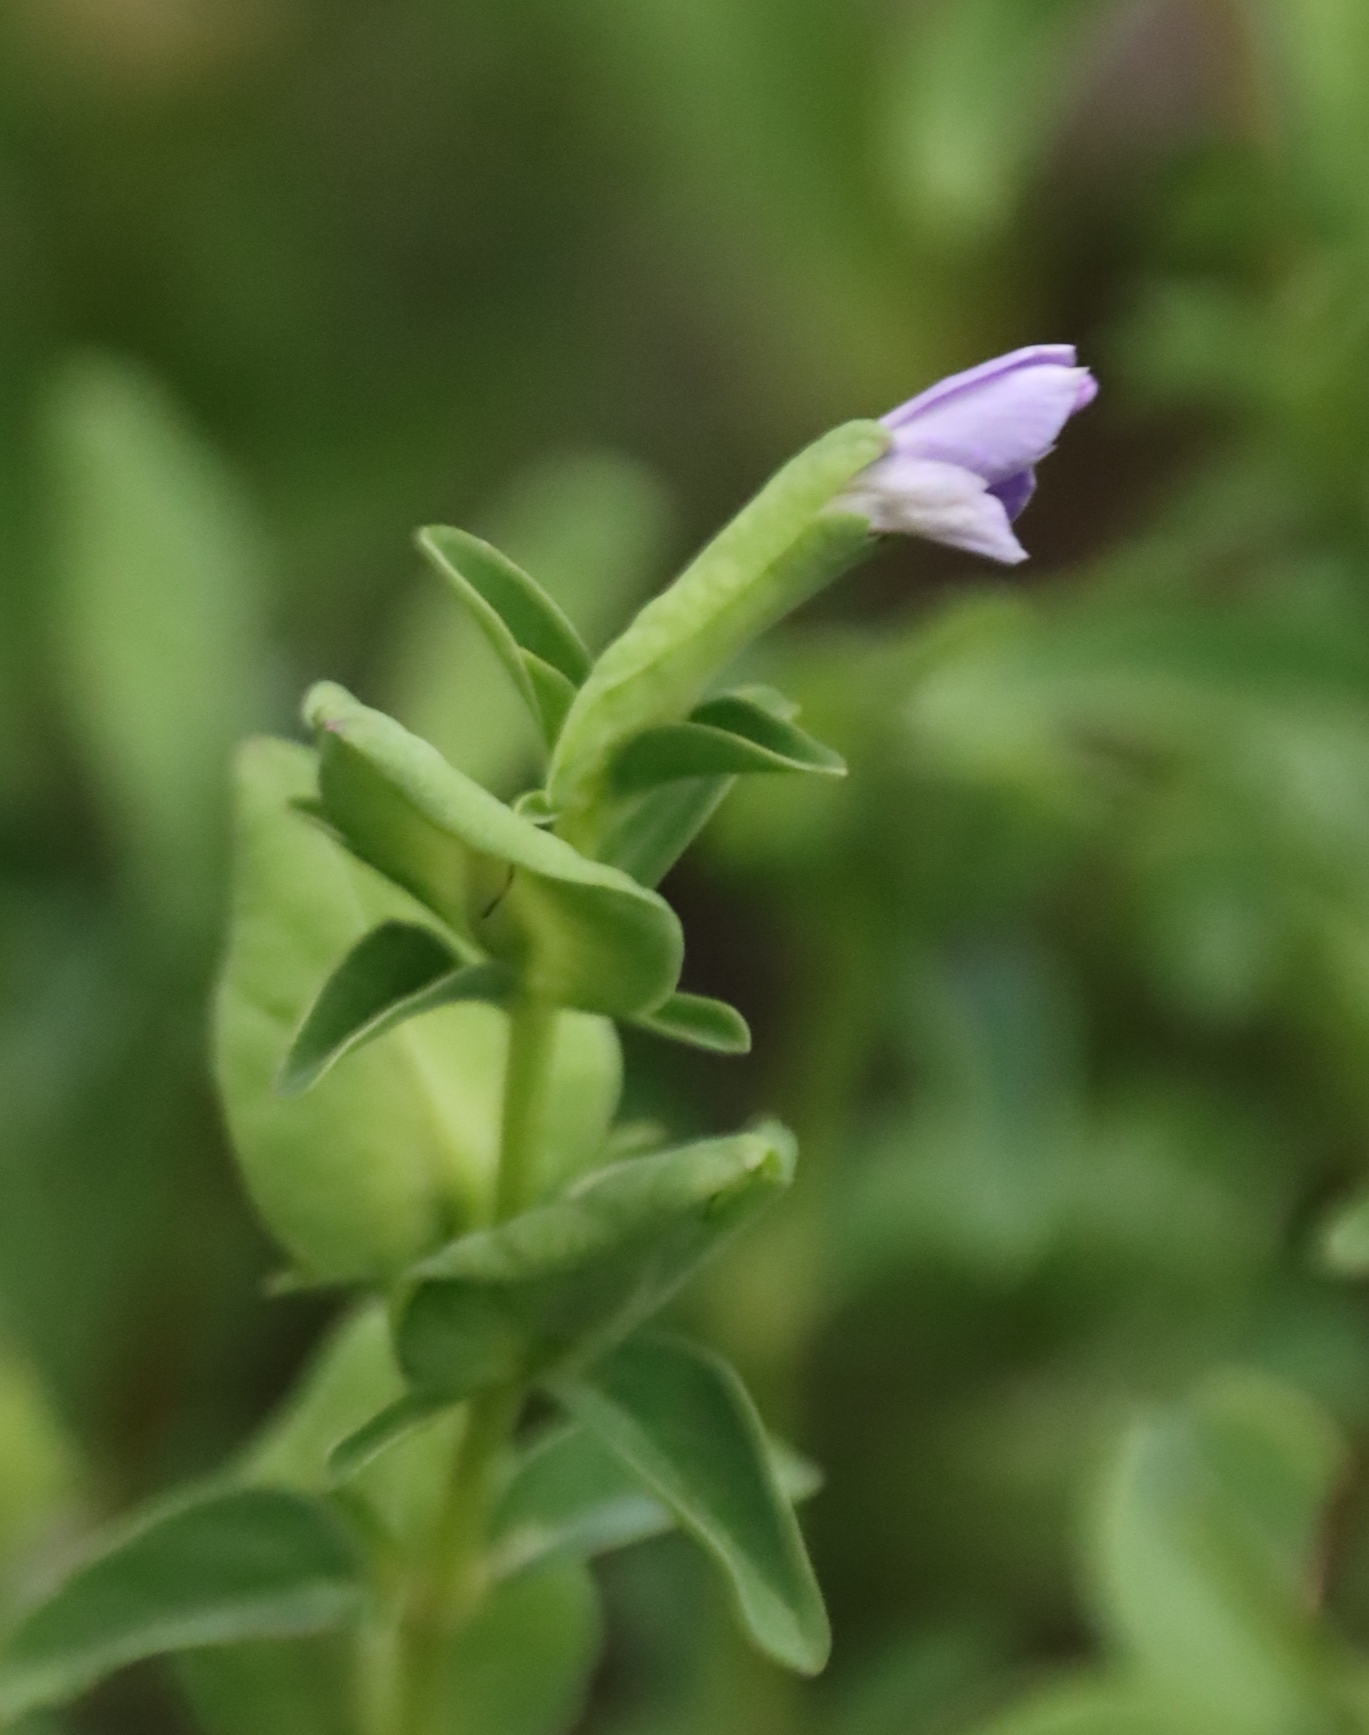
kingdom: Plantae
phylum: Tracheophyta
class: Magnoliopsida
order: Lamiales
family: Acanthaceae
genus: Barleria
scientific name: Barleria galpinii
